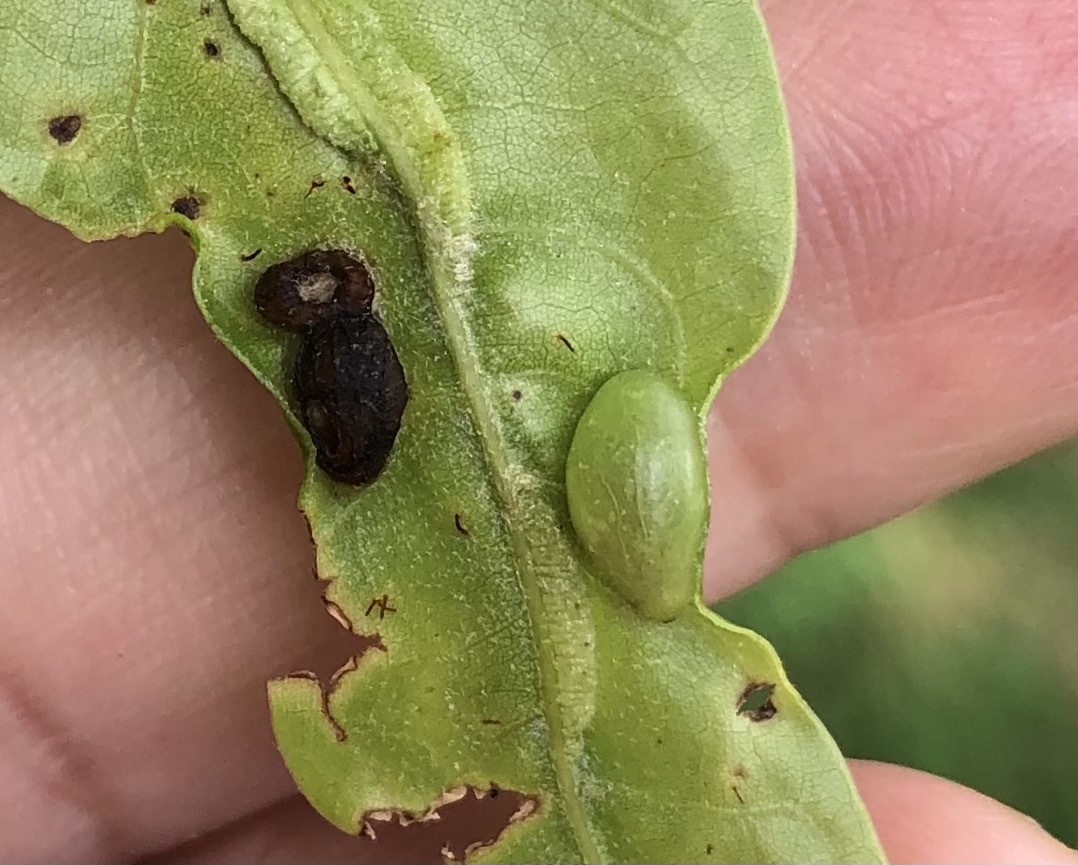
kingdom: Animalia
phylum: Arthropoda
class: Insecta
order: Hymenoptera
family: Cynipidae
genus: Dryocosmus
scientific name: Dryocosmus
